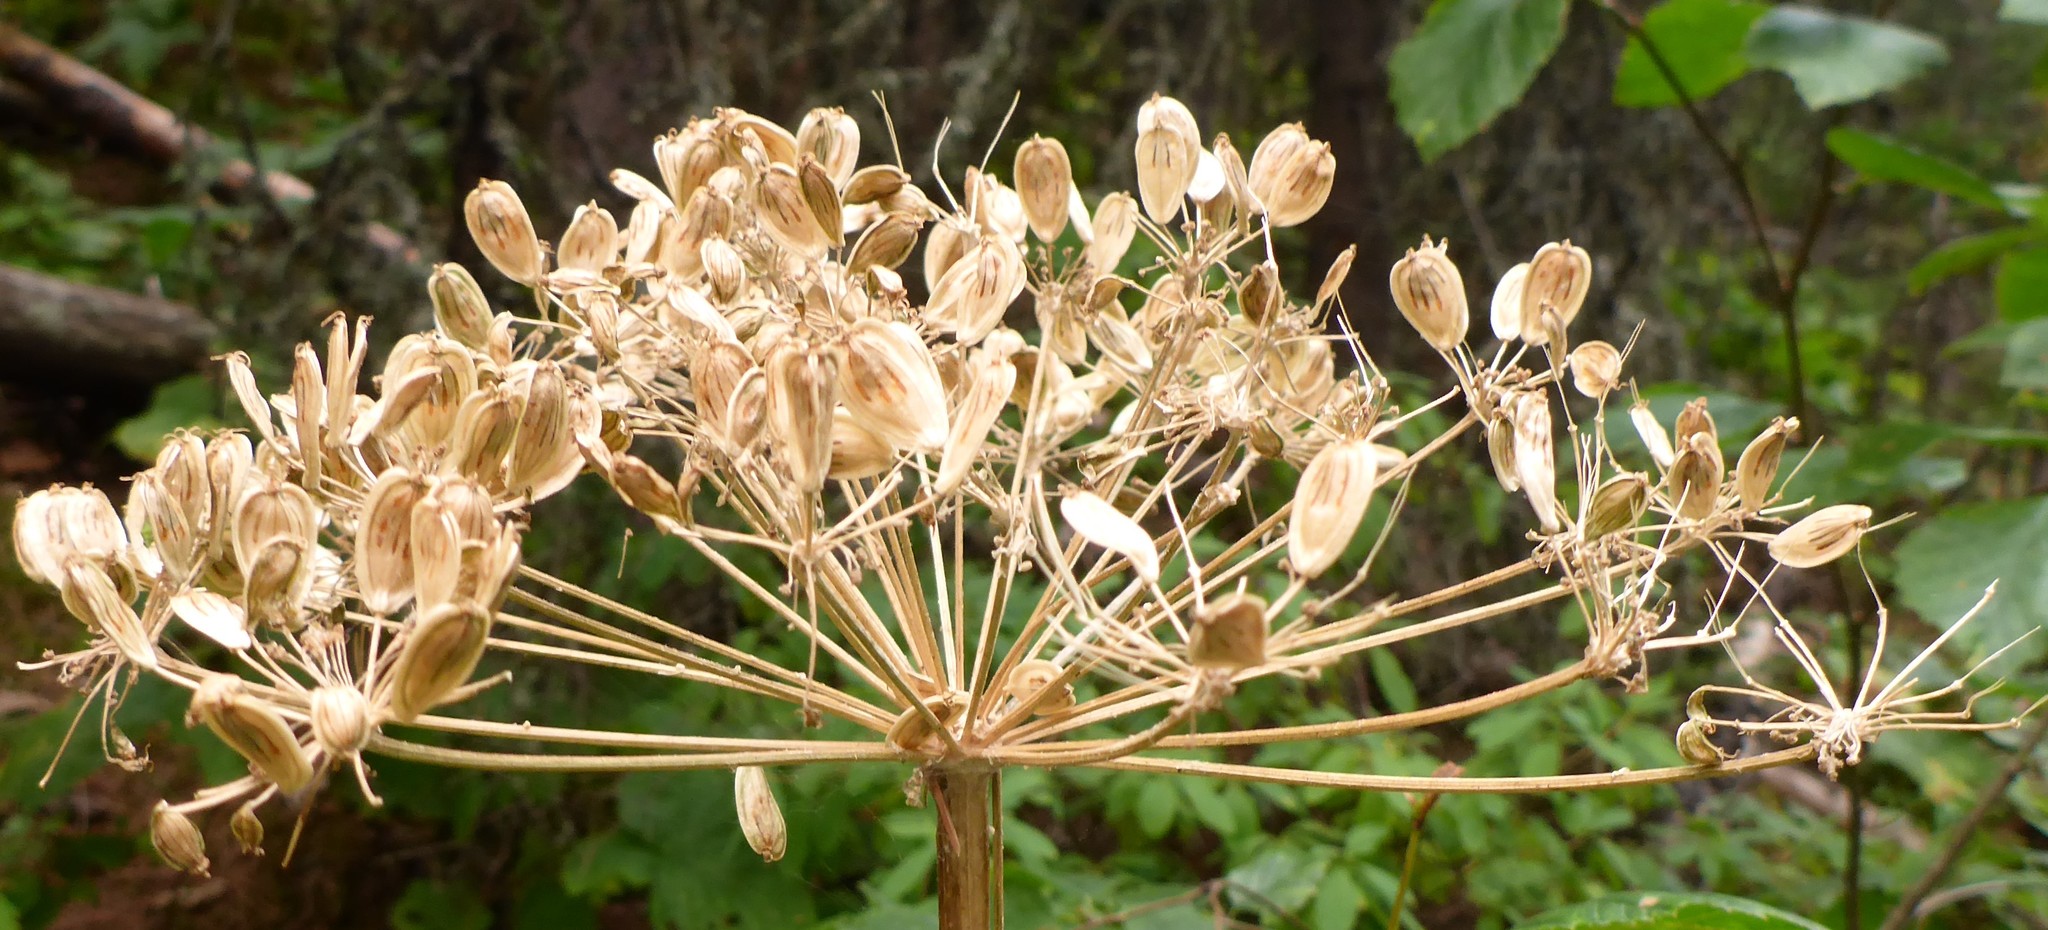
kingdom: Plantae
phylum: Tracheophyta
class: Magnoliopsida
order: Apiales
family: Apiaceae
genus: Heracleum
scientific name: Heracleum maximum
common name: American cow parsnip
